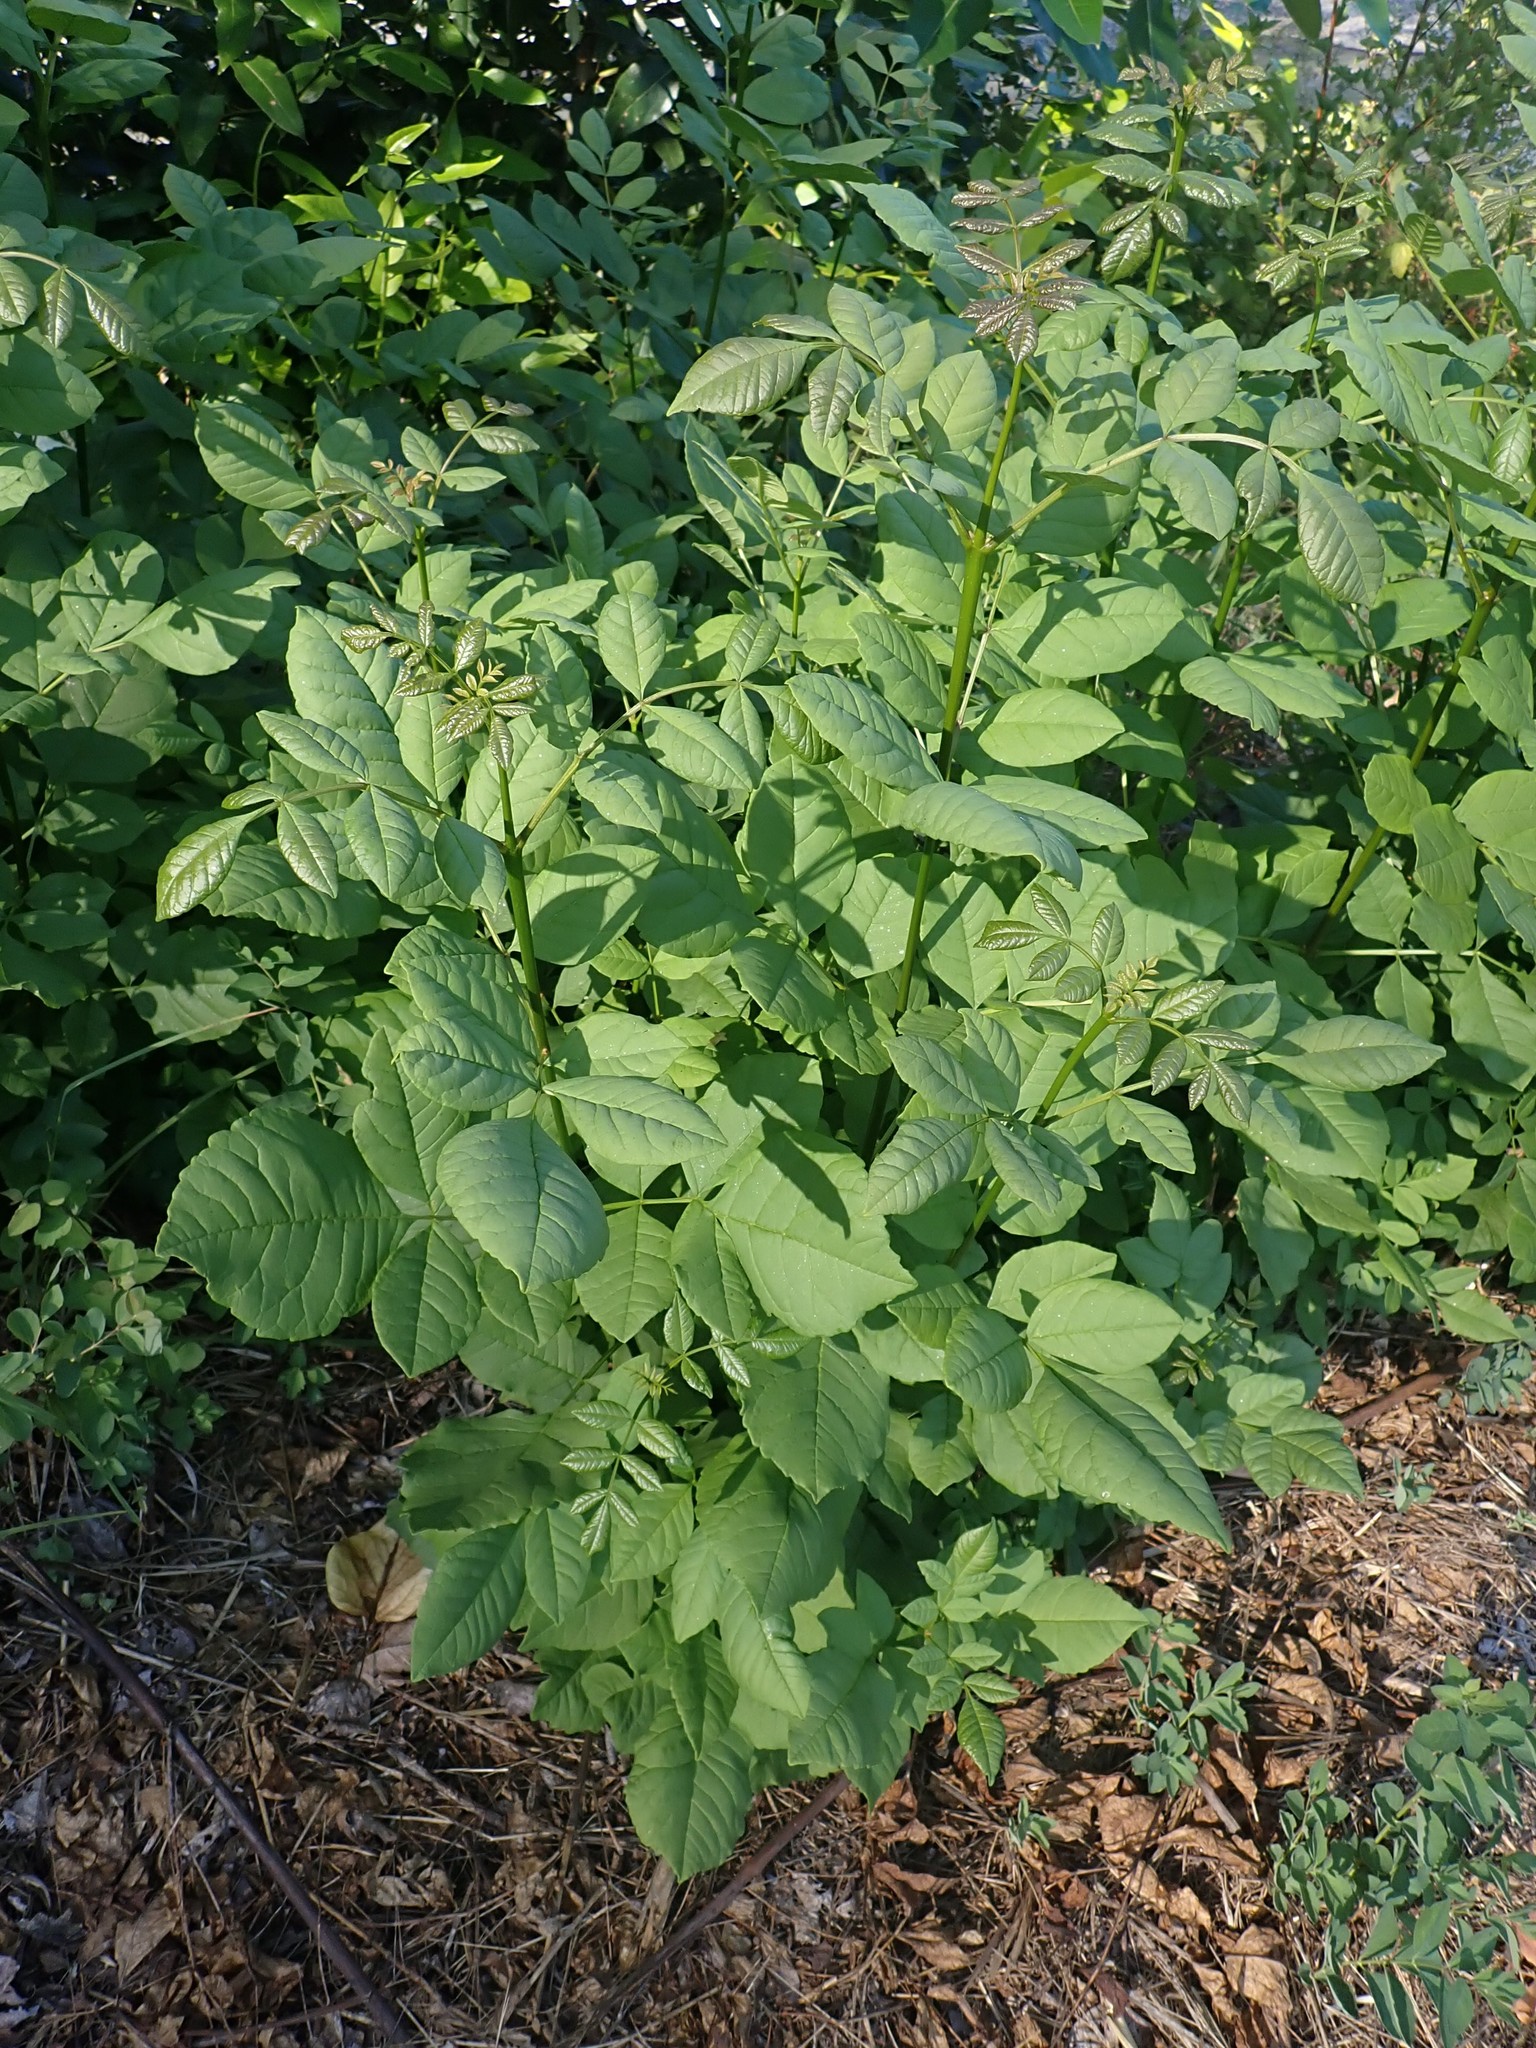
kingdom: Plantae
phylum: Tracheophyta
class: Magnoliopsida
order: Lamiales
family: Oleaceae
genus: Fraxinus
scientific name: Fraxinus latifolia
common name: Oregon ash
